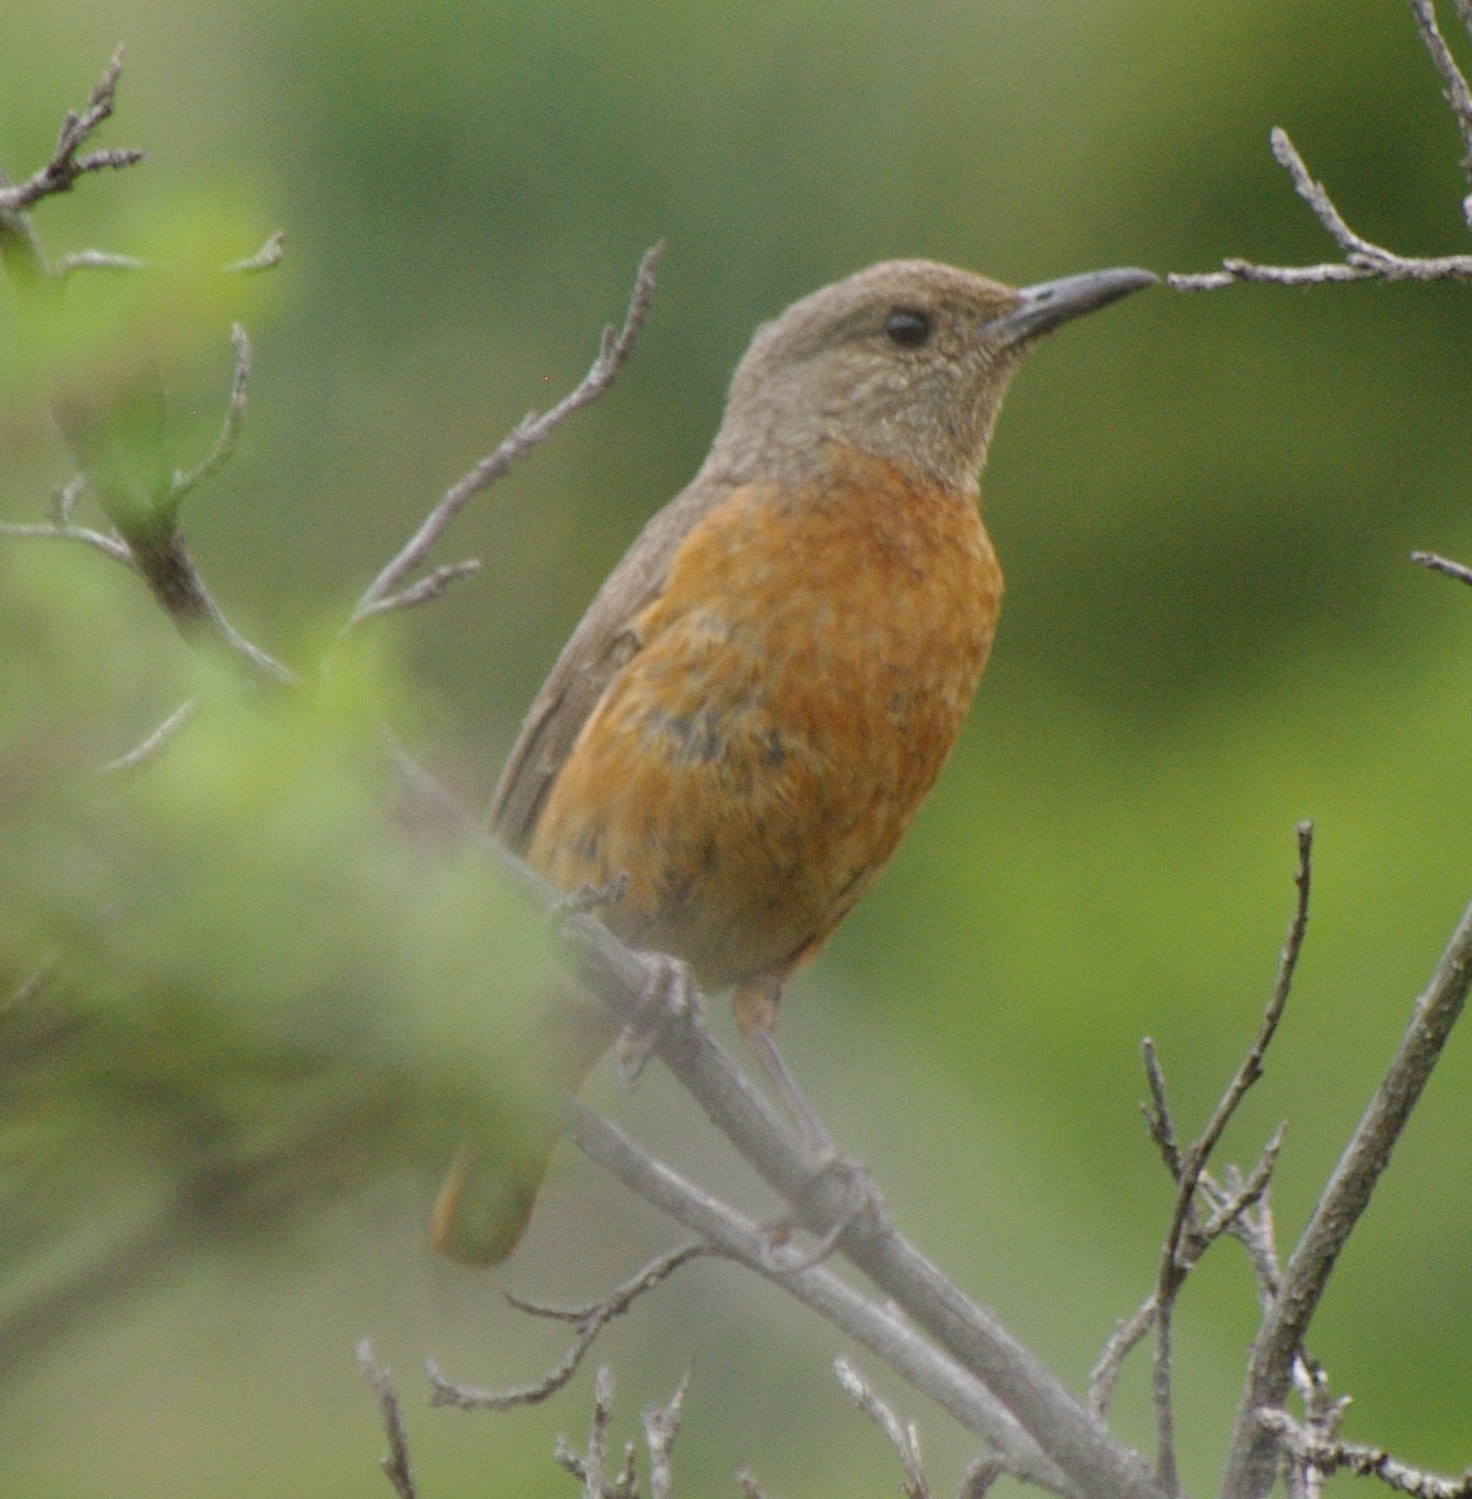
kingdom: Animalia
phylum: Chordata
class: Aves
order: Passeriformes
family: Muscicapidae
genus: Monticola
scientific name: Monticola rupestris
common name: Cape rock thrush
